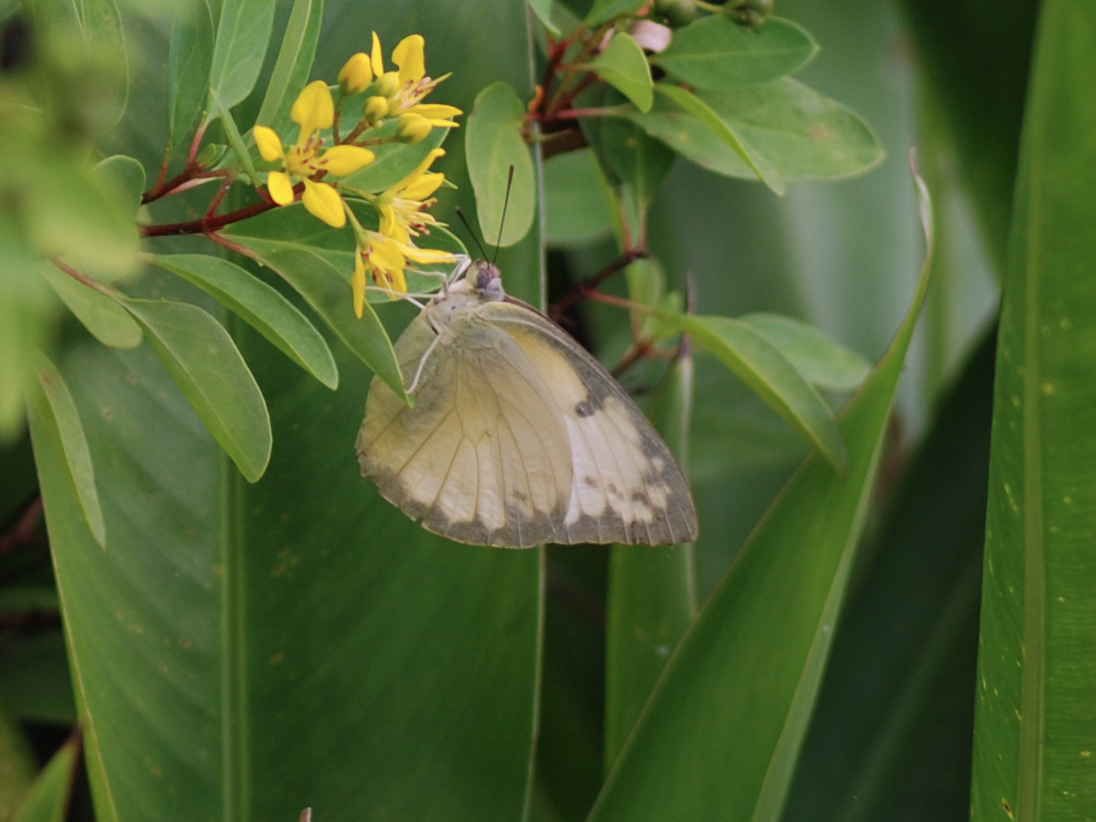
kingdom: Animalia
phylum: Arthropoda
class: Insecta
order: Lepidoptera
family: Pieridae
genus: Catopsilia
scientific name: Catopsilia pomona
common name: Common emigrant
